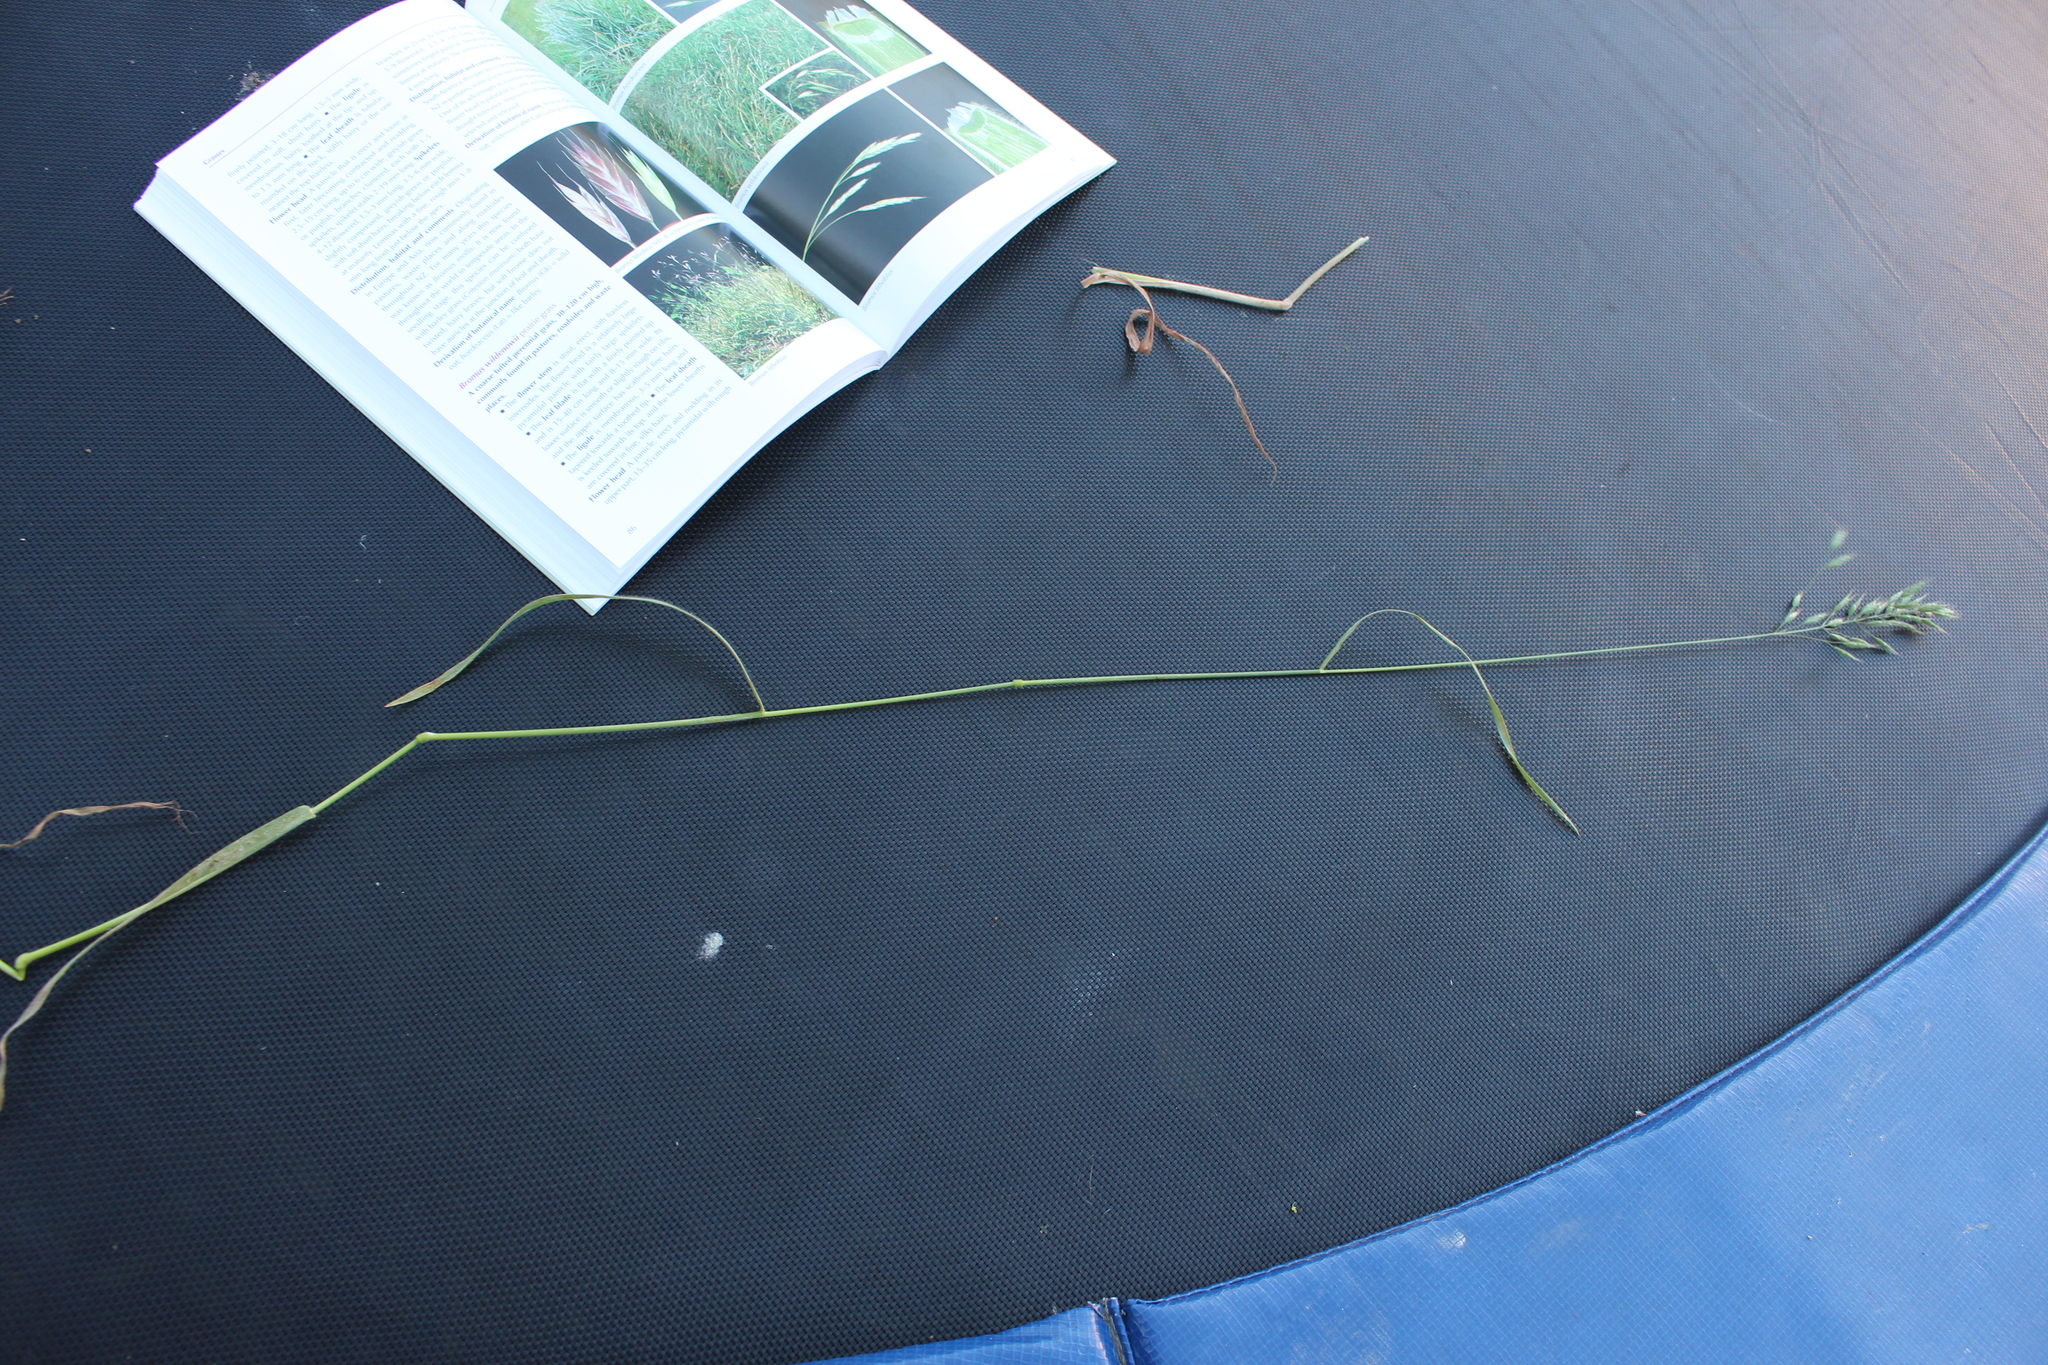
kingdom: Plantae
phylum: Tracheophyta
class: Liliopsida
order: Poales
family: Poaceae
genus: Bromus
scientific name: Bromus hordeaceus
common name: Soft brome
